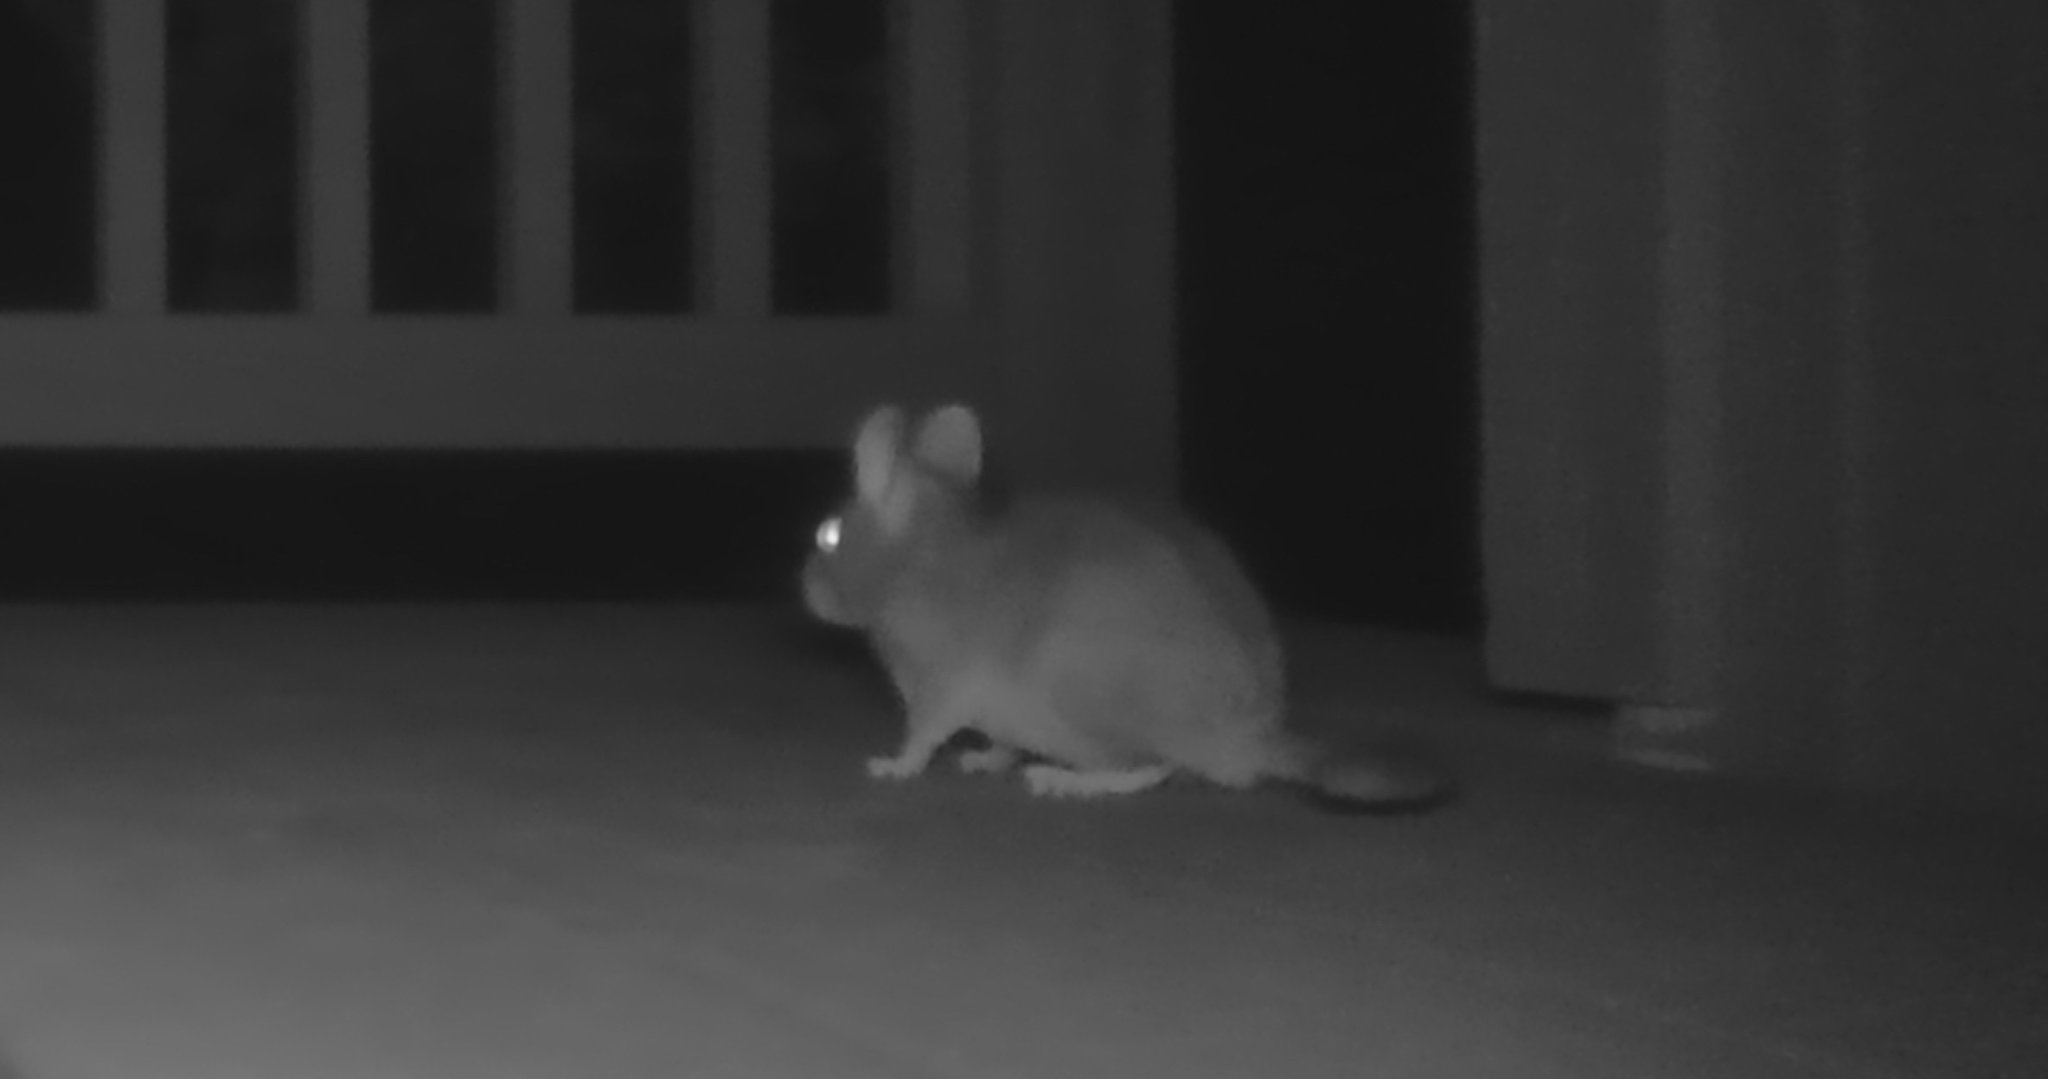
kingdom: Animalia
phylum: Chordata
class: Mammalia
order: Rodentia
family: Cricetidae
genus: Neotoma
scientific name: Neotoma cinerea
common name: Bushy-tailed woodrat
